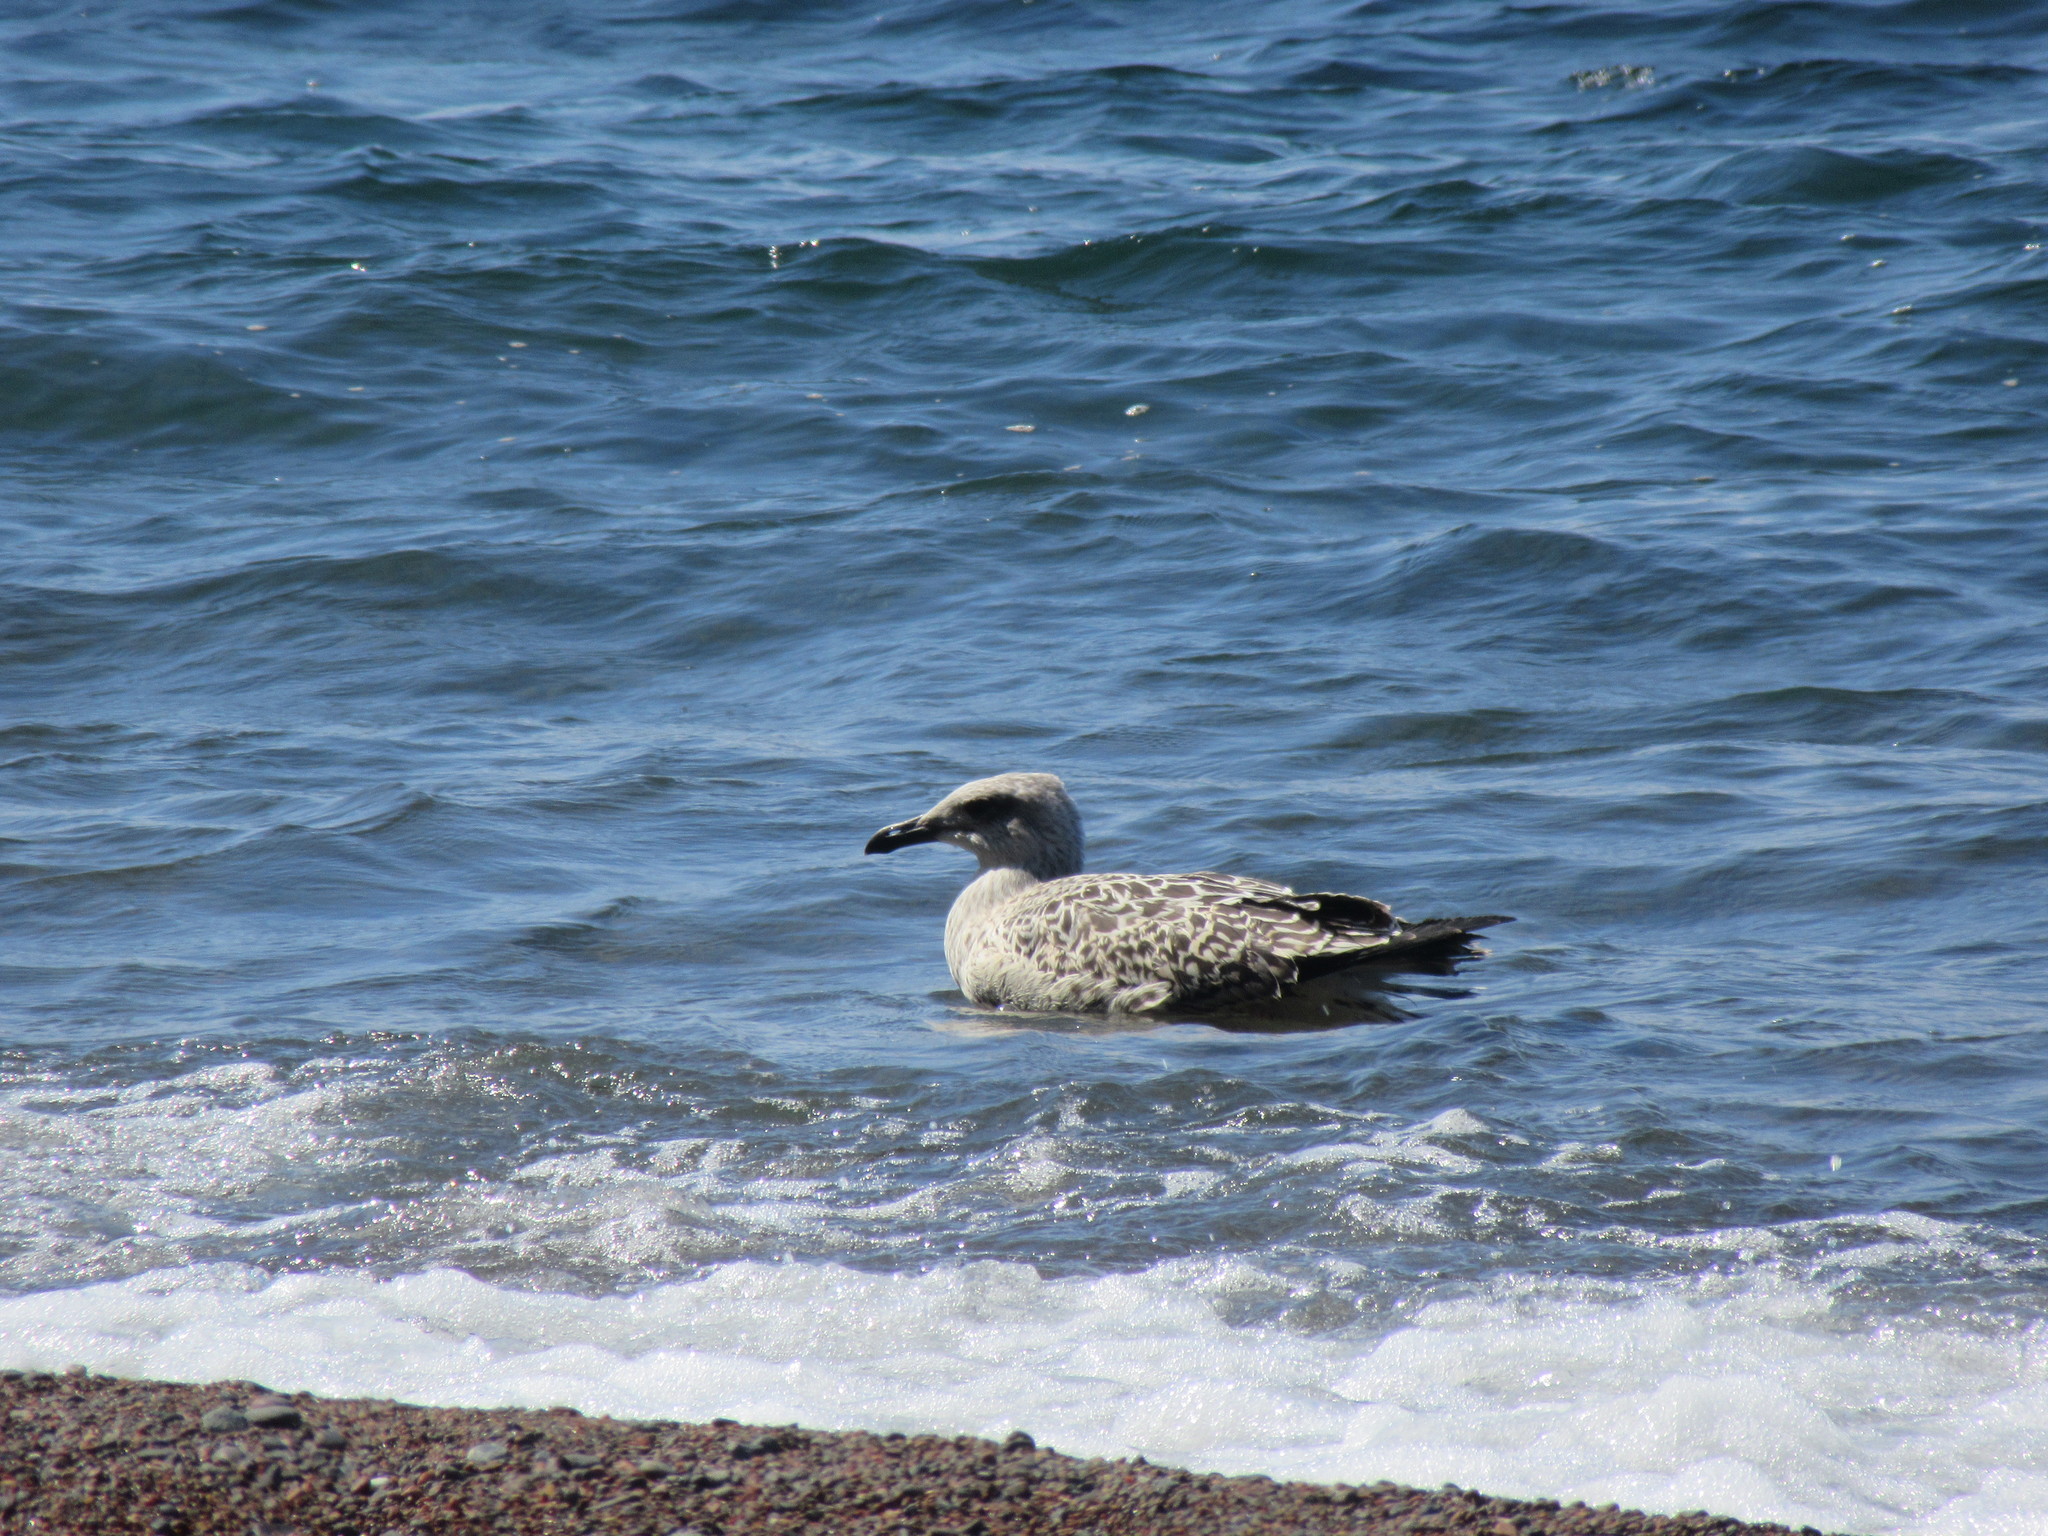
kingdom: Animalia
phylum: Chordata
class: Aves
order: Charadriiformes
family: Laridae
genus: Larus
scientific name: Larus marinus
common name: Great black-backed gull
